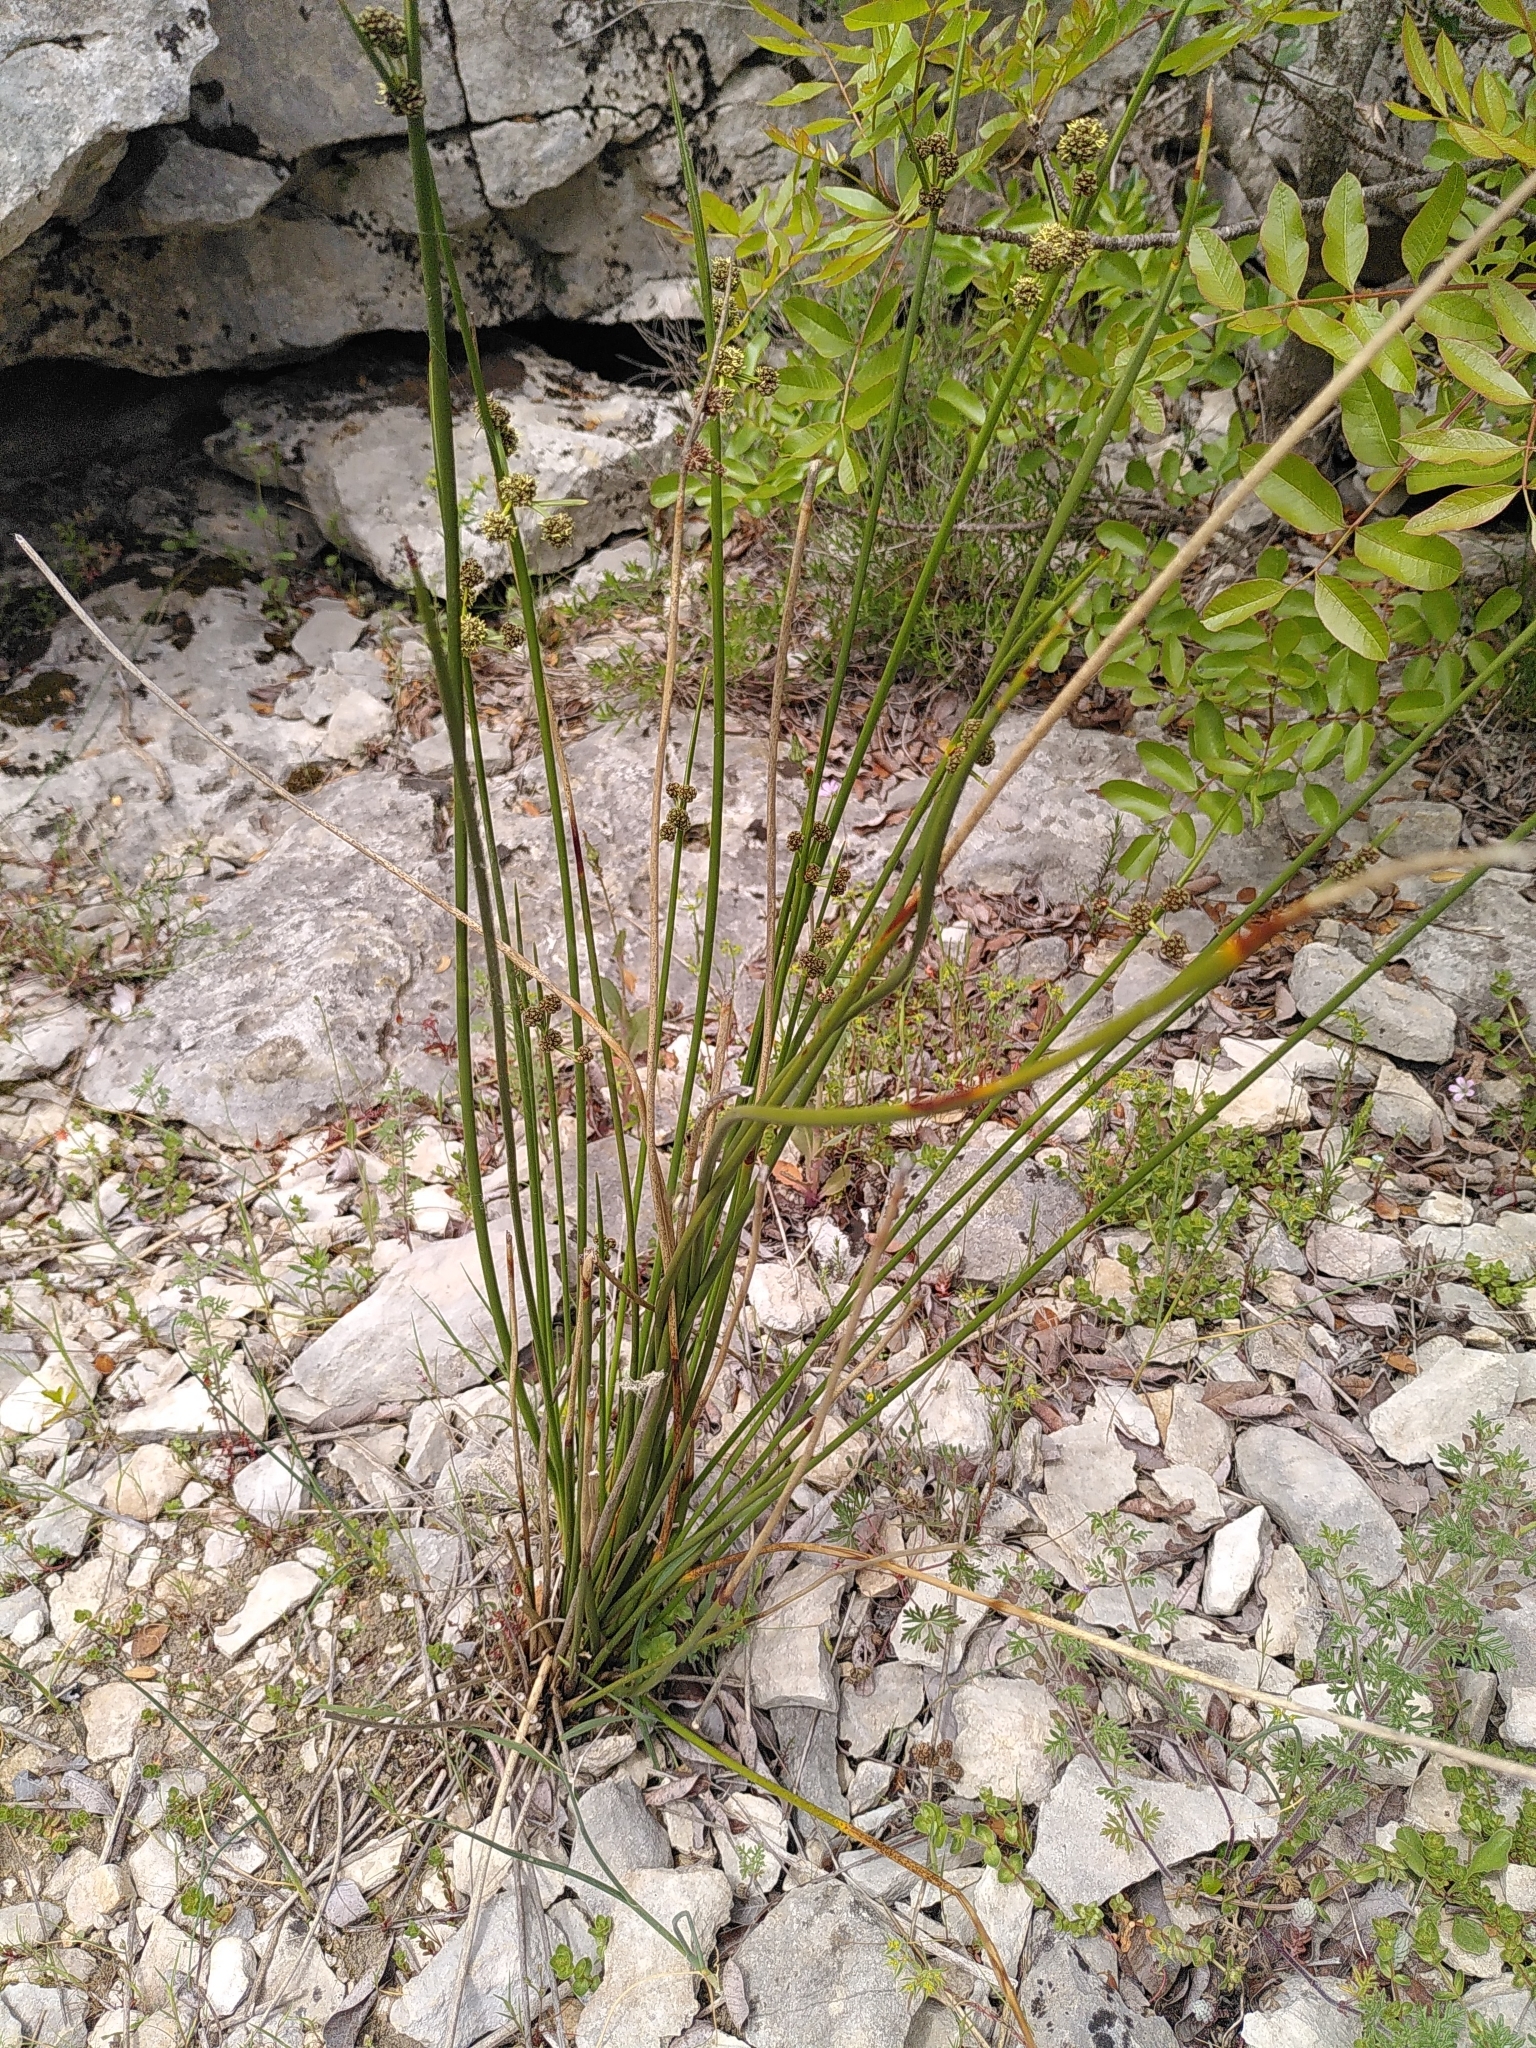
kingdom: Plantae
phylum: Tracheophyta
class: Liliopsida
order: Poales
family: Cyperaceae
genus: Scirpoides
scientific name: Scirpoides holoschoenus
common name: Round-headed club-rush
